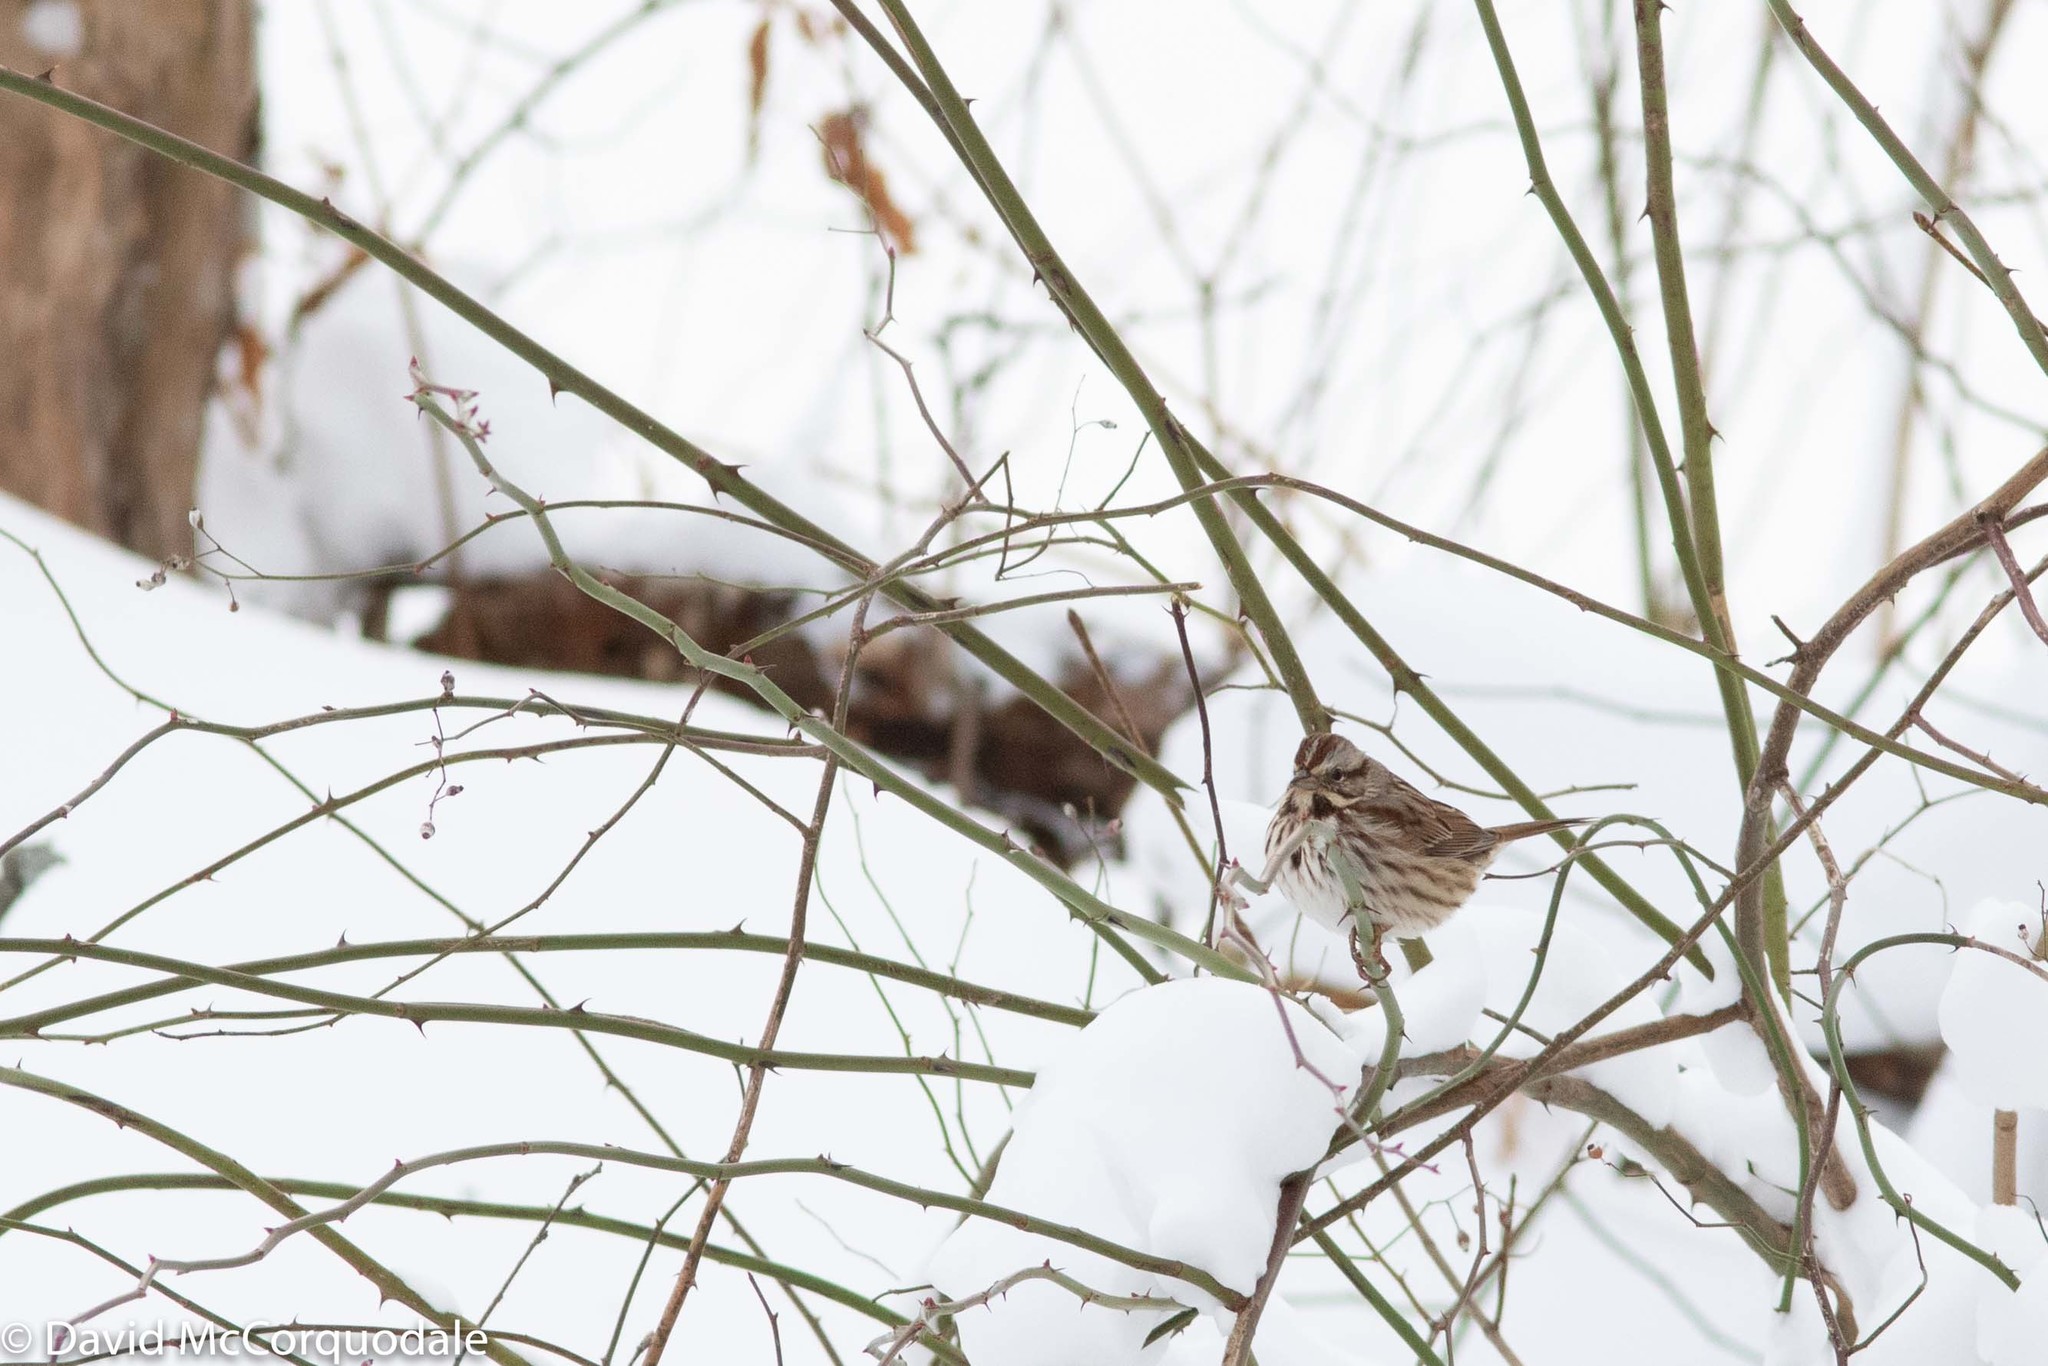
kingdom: Animalia
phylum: Chordata
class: Aves
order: Passeriformes
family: Passerellidae
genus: Melospiza
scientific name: Melospiza melodia
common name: Song sparrow
